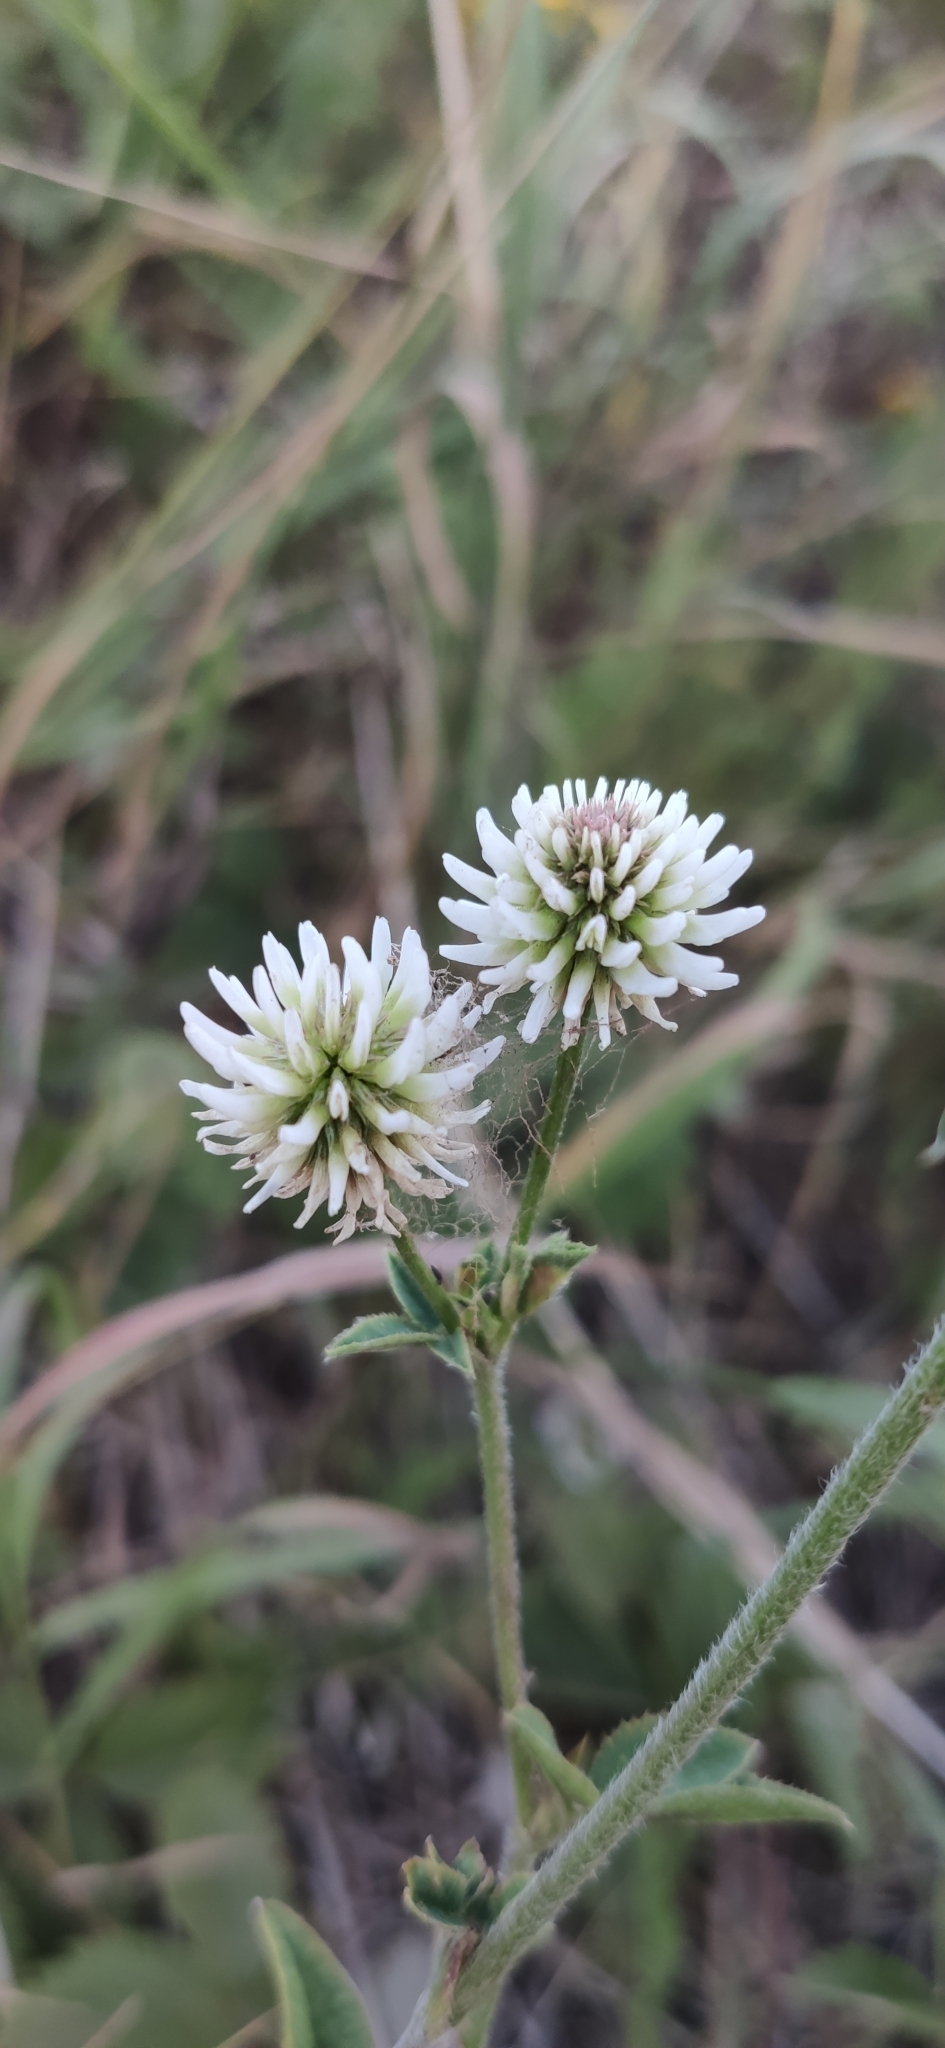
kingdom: Plantae
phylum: Tracheophyta
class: Magnoliopsida
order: Fabales
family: Fabaceae
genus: Trifolium
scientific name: Trifolium montanum
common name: Mountain clover
